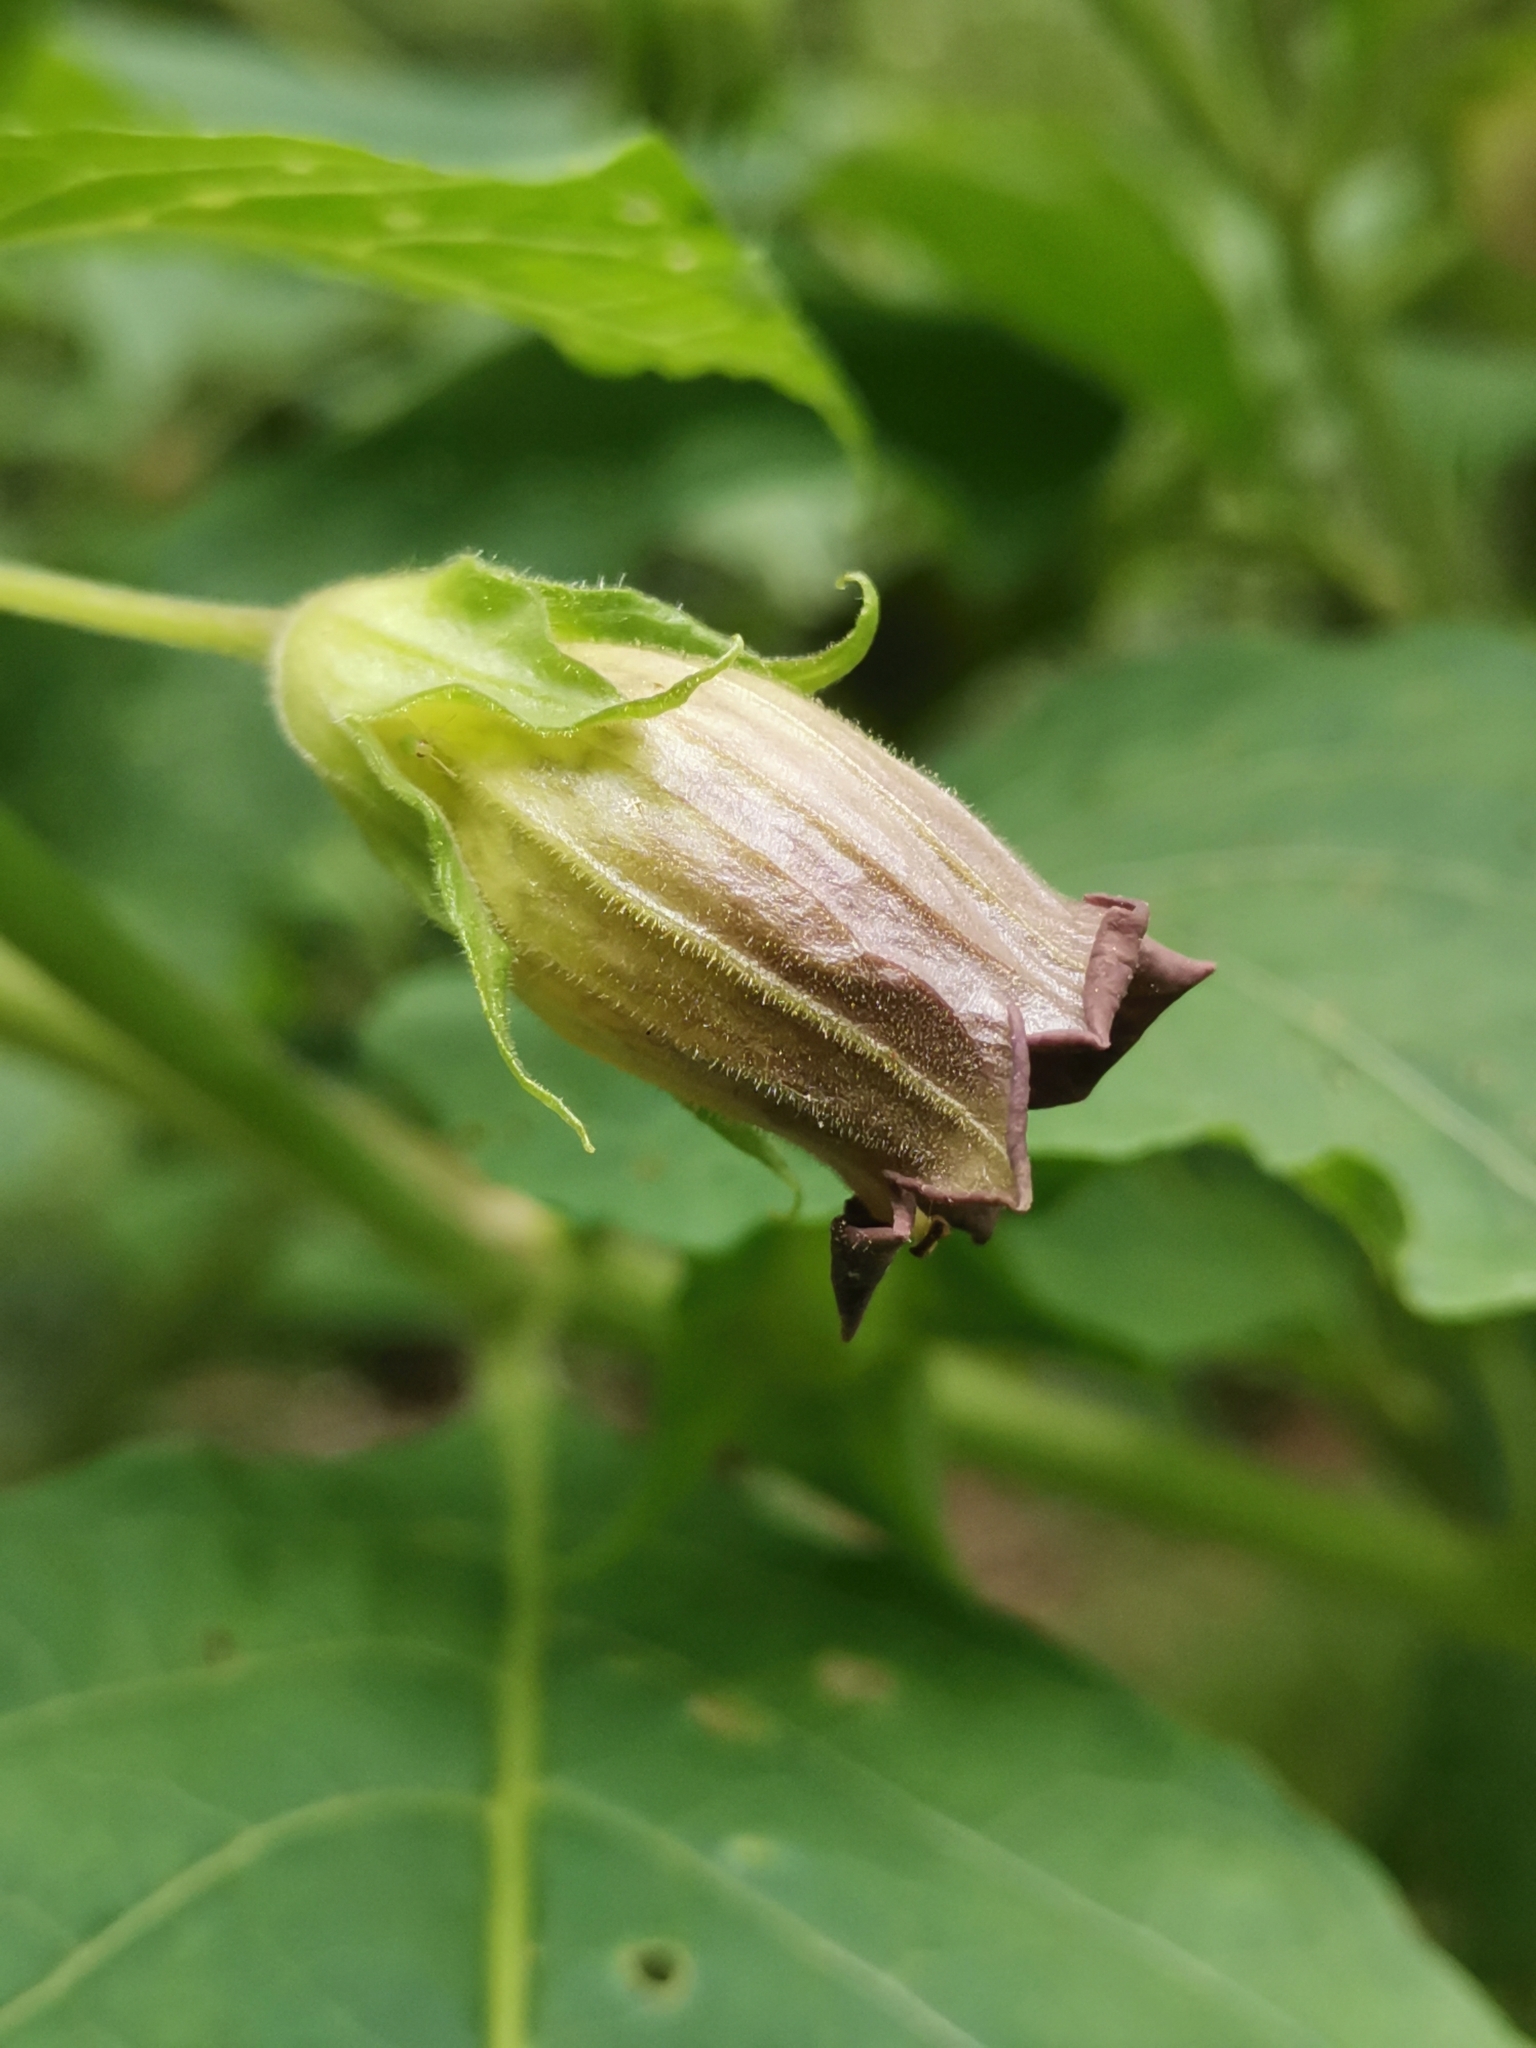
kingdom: Plantae
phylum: Tracheophyta
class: Magnoliopsida
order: Solanales
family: Solanaceae
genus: Atropa
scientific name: Atropa belladonna
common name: Deadly nightshade
